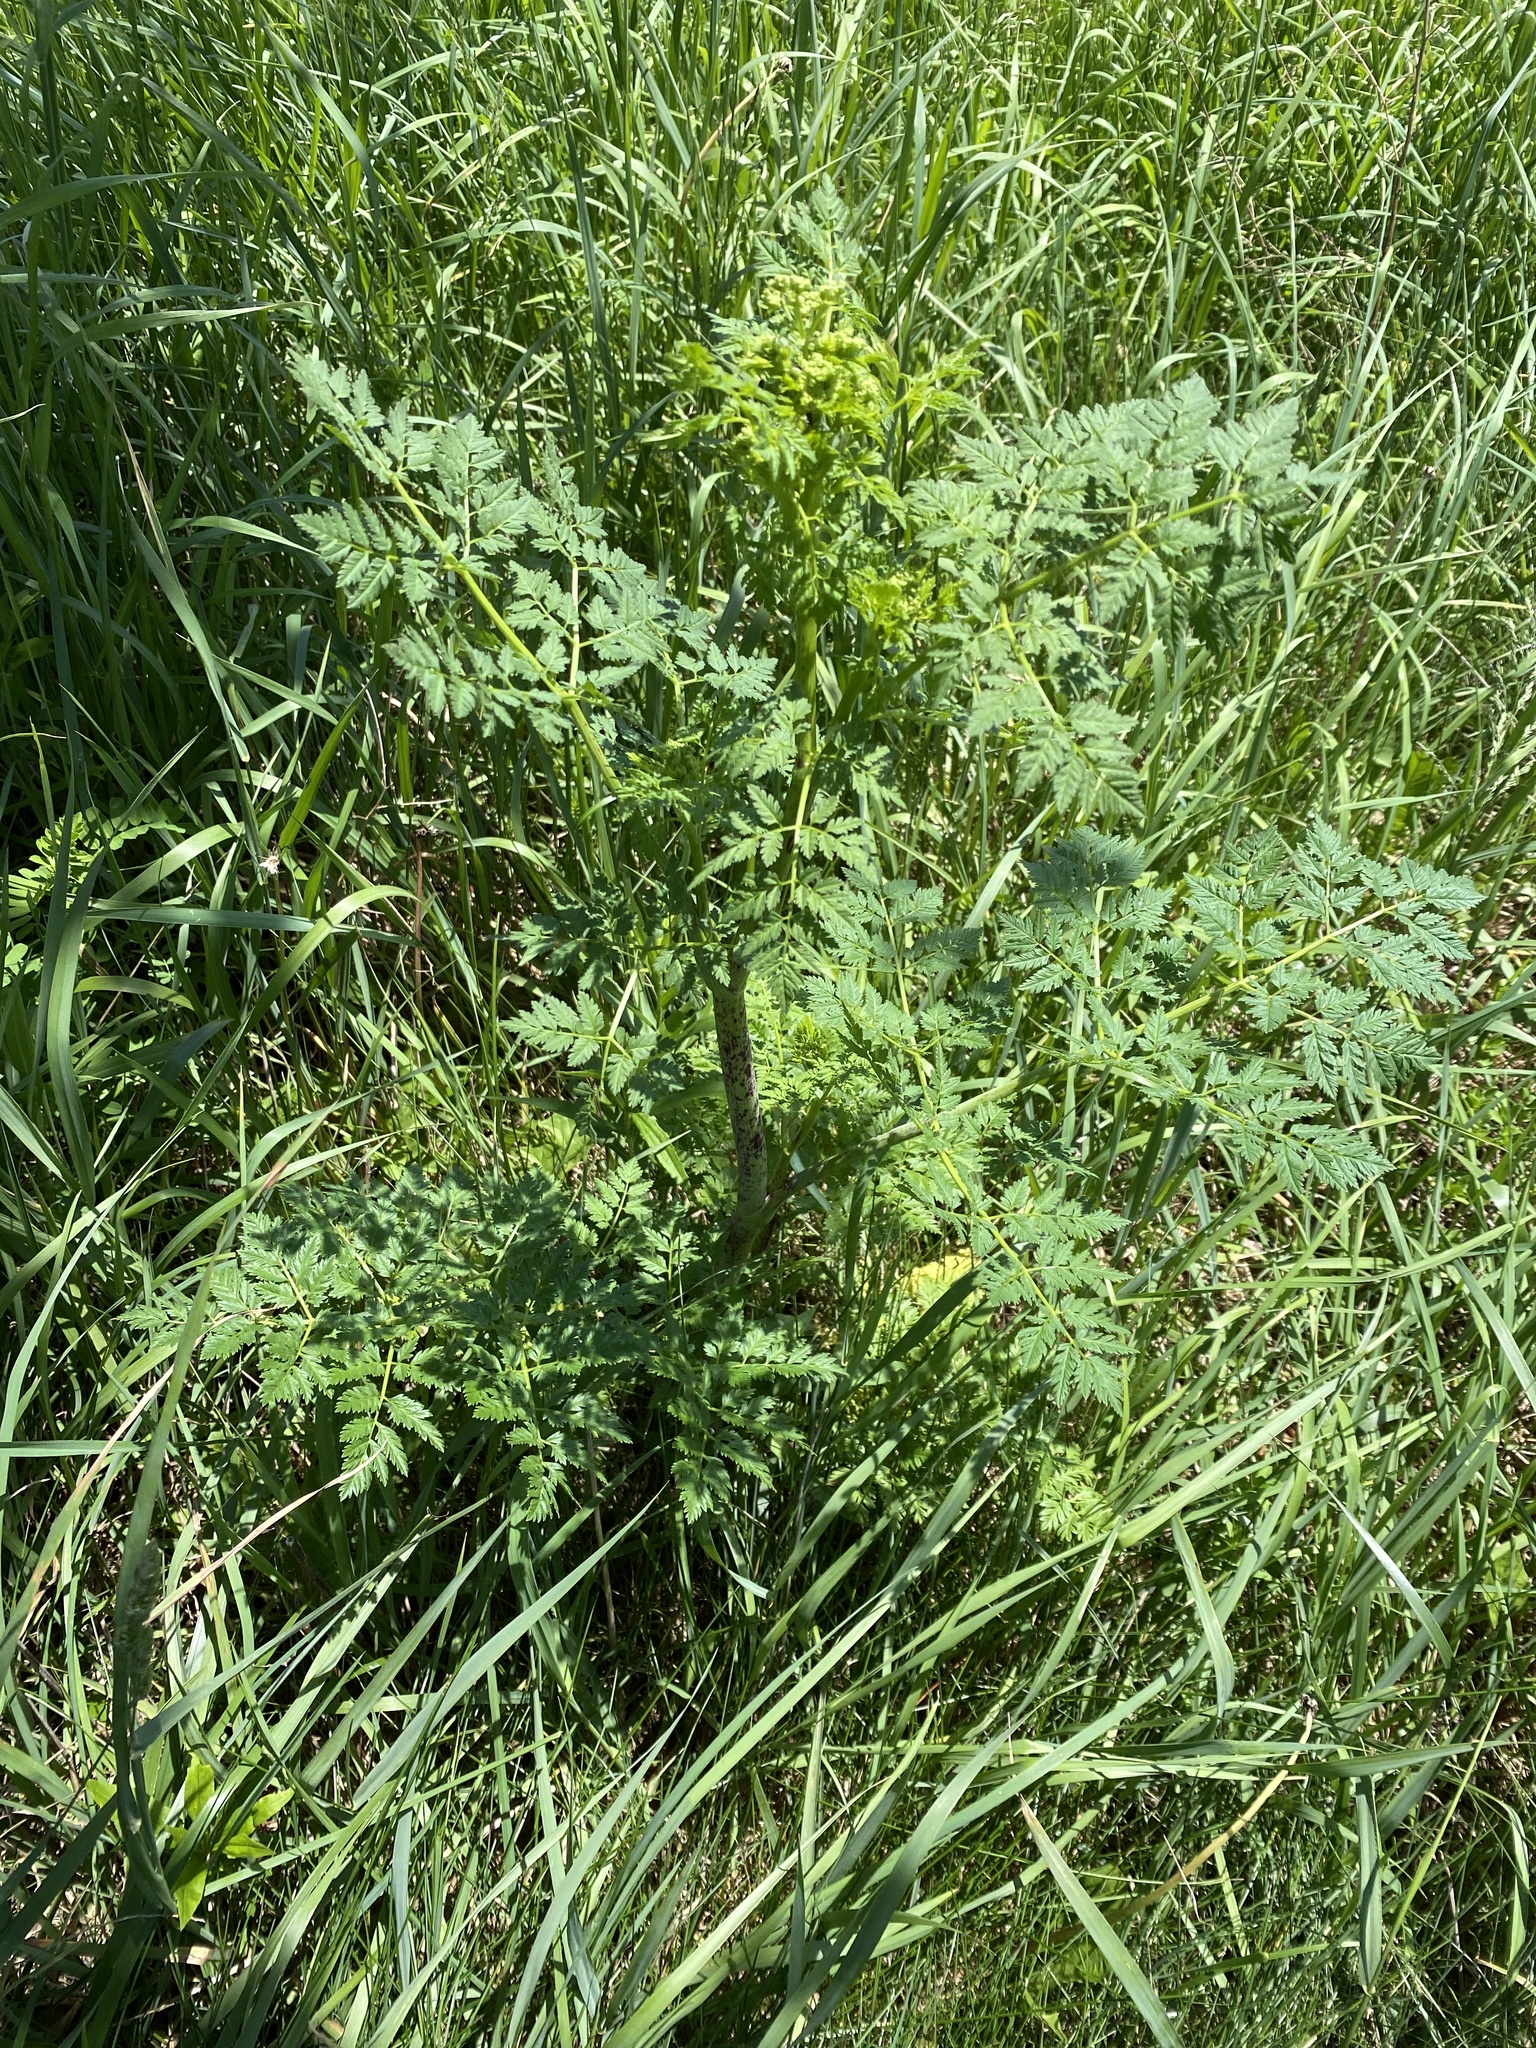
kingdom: Plantae
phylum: Tracheophyta
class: Magnoliopsida
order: Apiales
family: Apiaceae
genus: Conium
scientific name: Conium maculatum
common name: Hemlock
